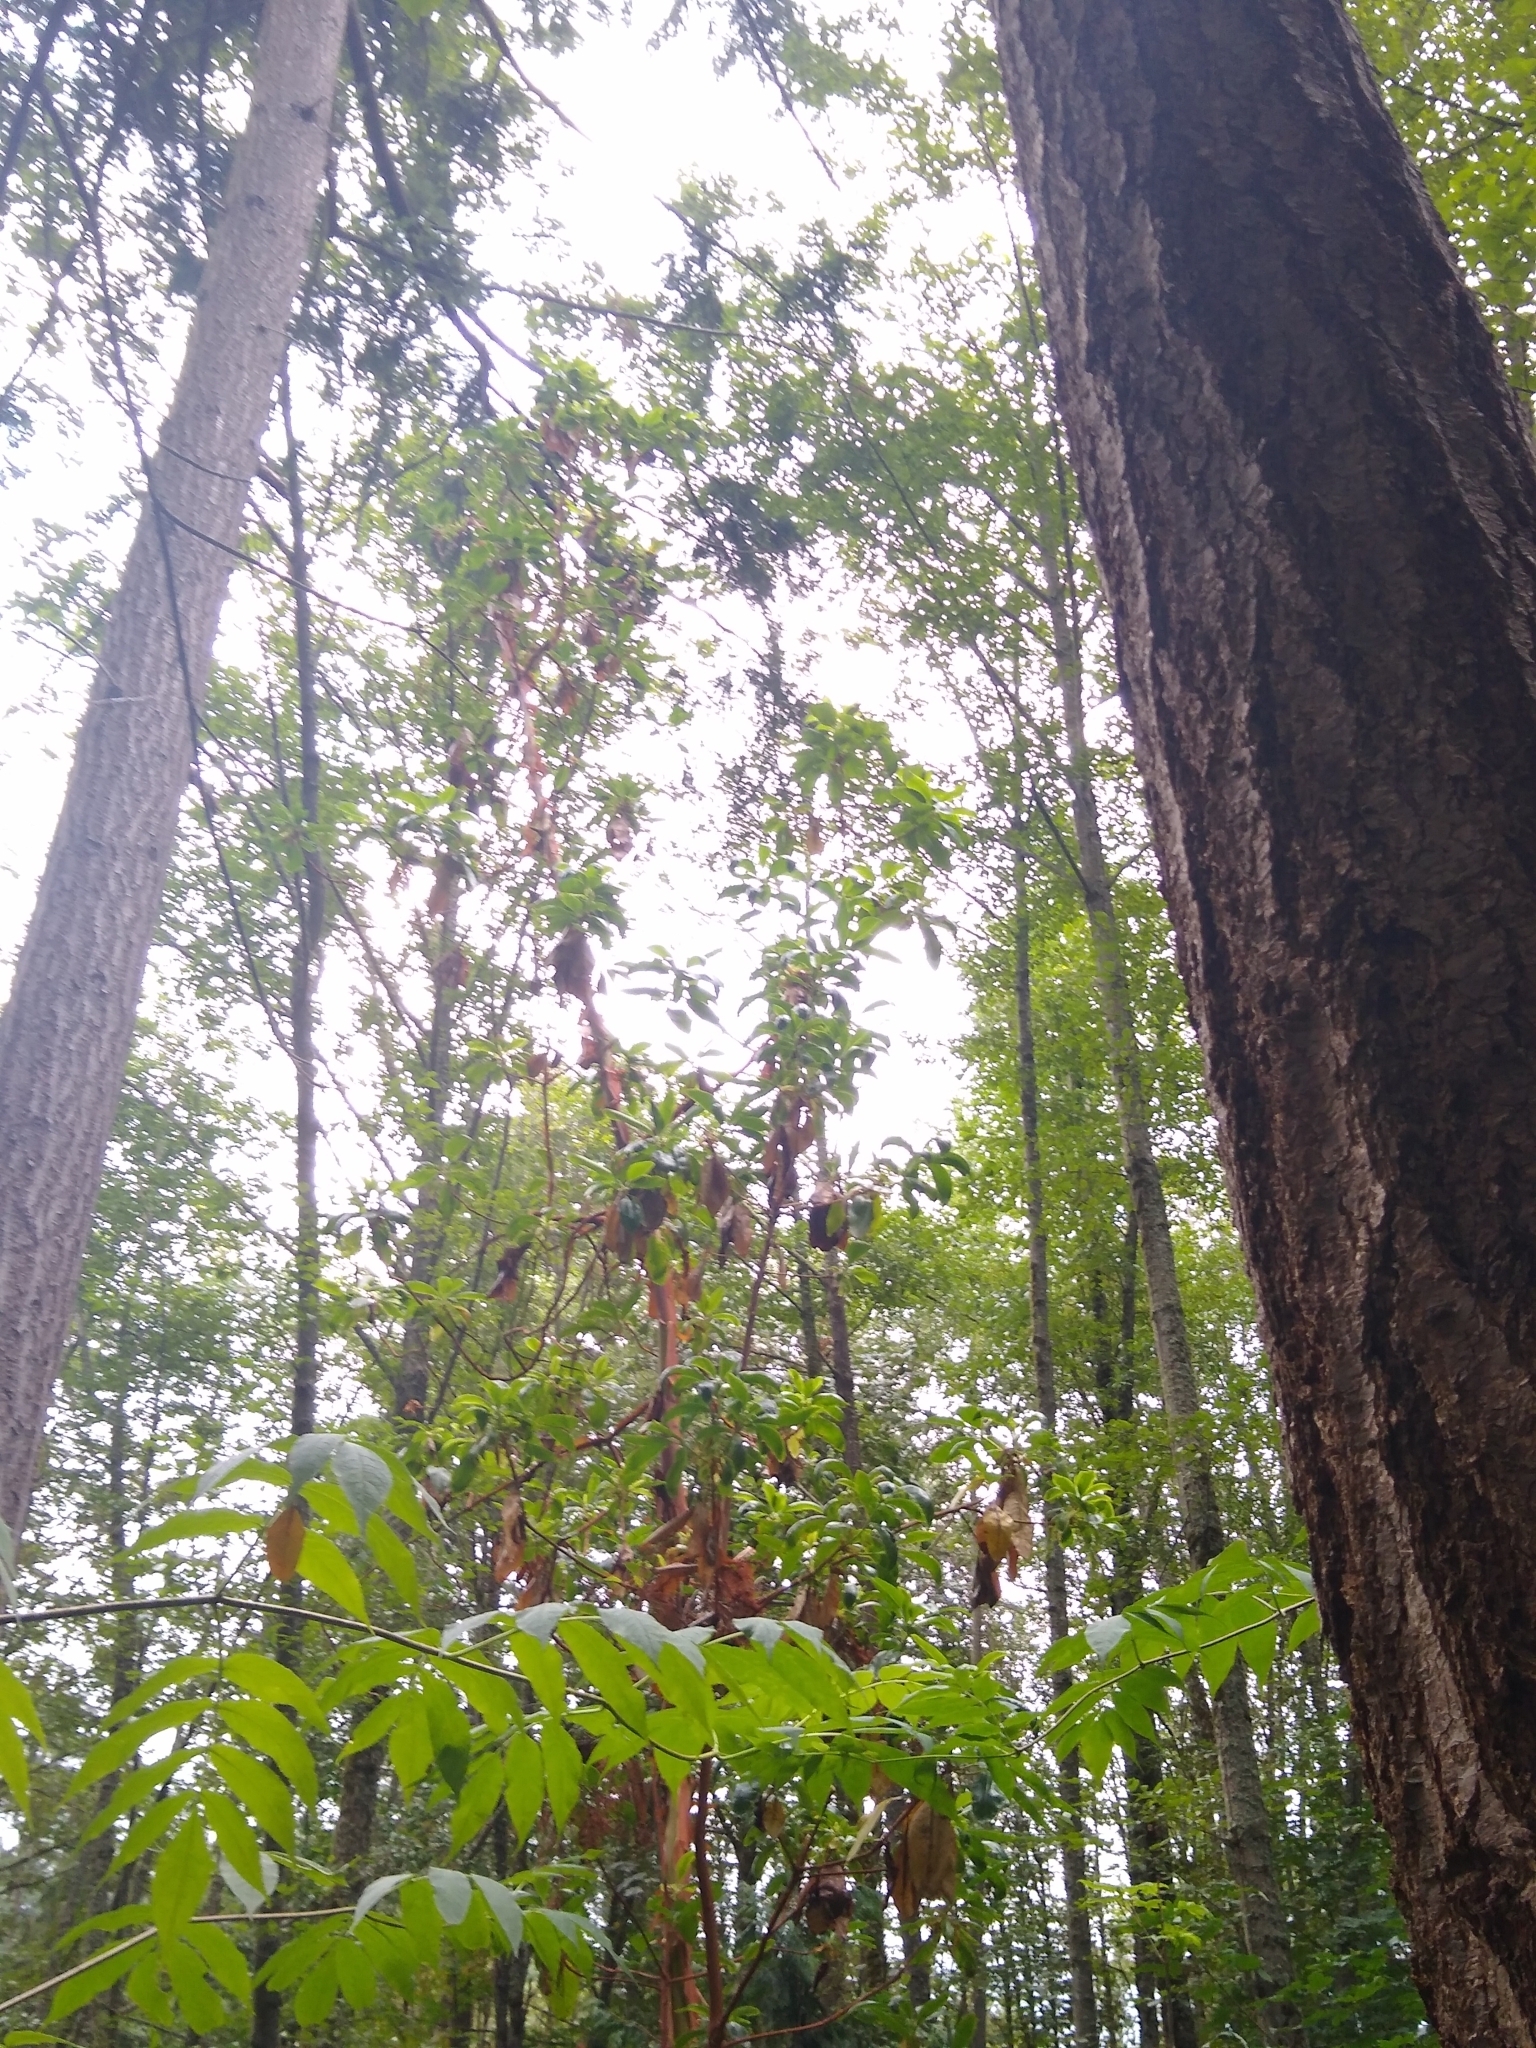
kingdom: Plantae
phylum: Tracheophyta
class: Magnoliopsida
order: Ericales
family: Ericaceae
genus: Arbutus
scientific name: Arbutus menziesii
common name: Pacific madrone
